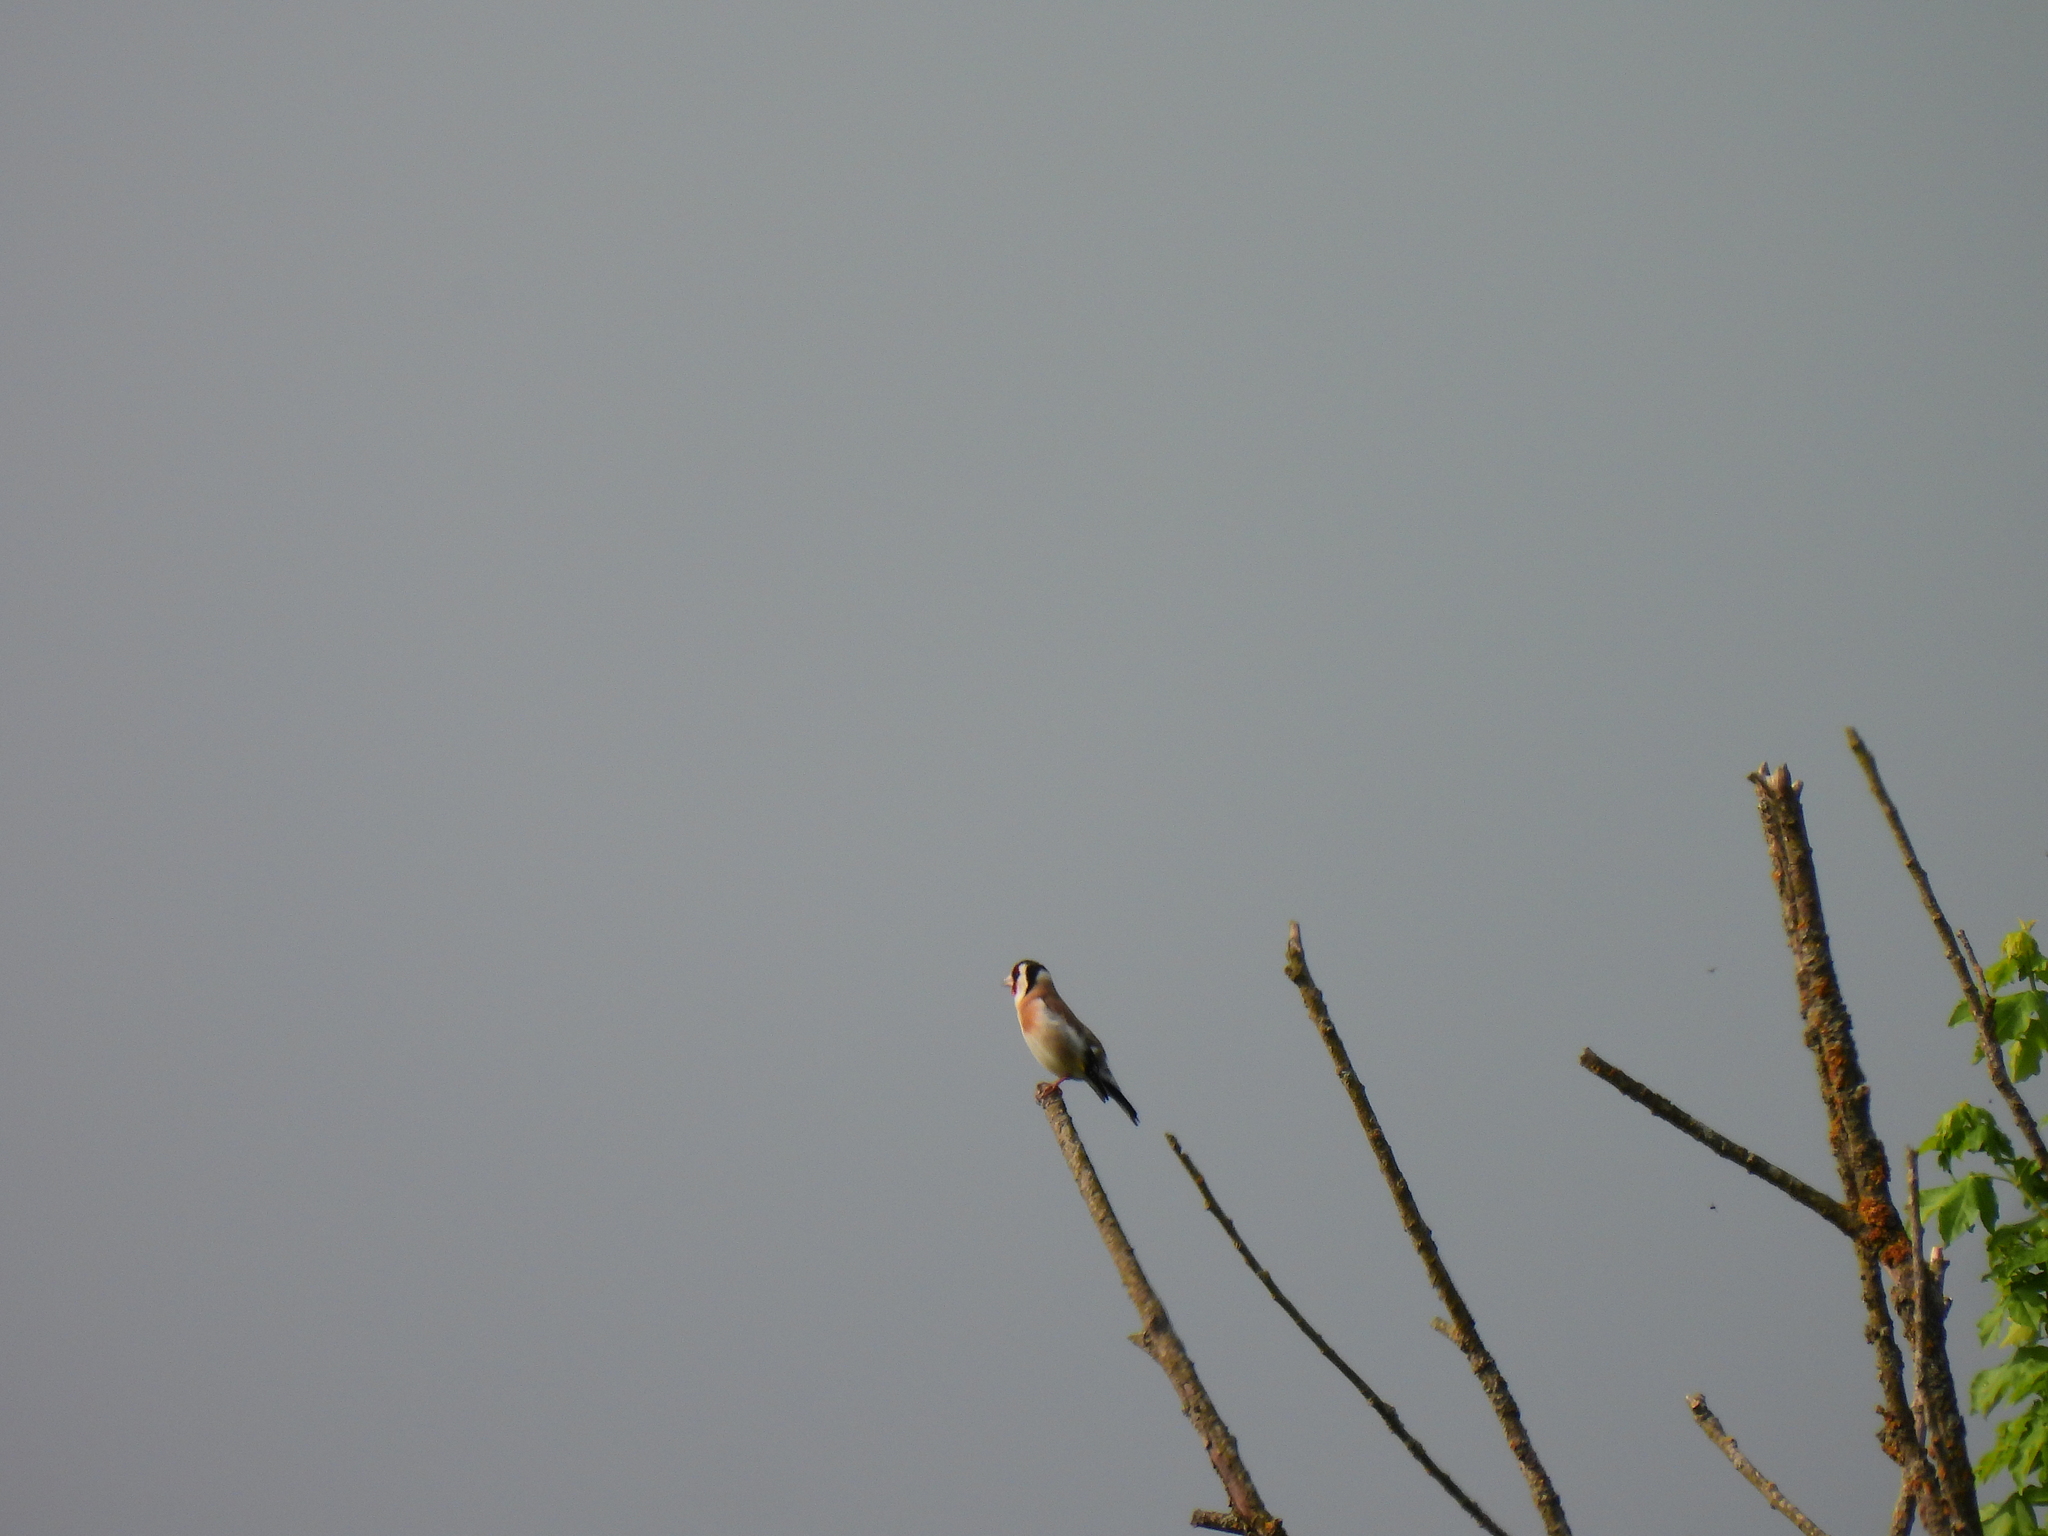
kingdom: Animalia
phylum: Chordata
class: Aves
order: Passeriformes
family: Fringillidae
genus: Carduelis
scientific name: Carduelis carduelis
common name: European goldfinch
